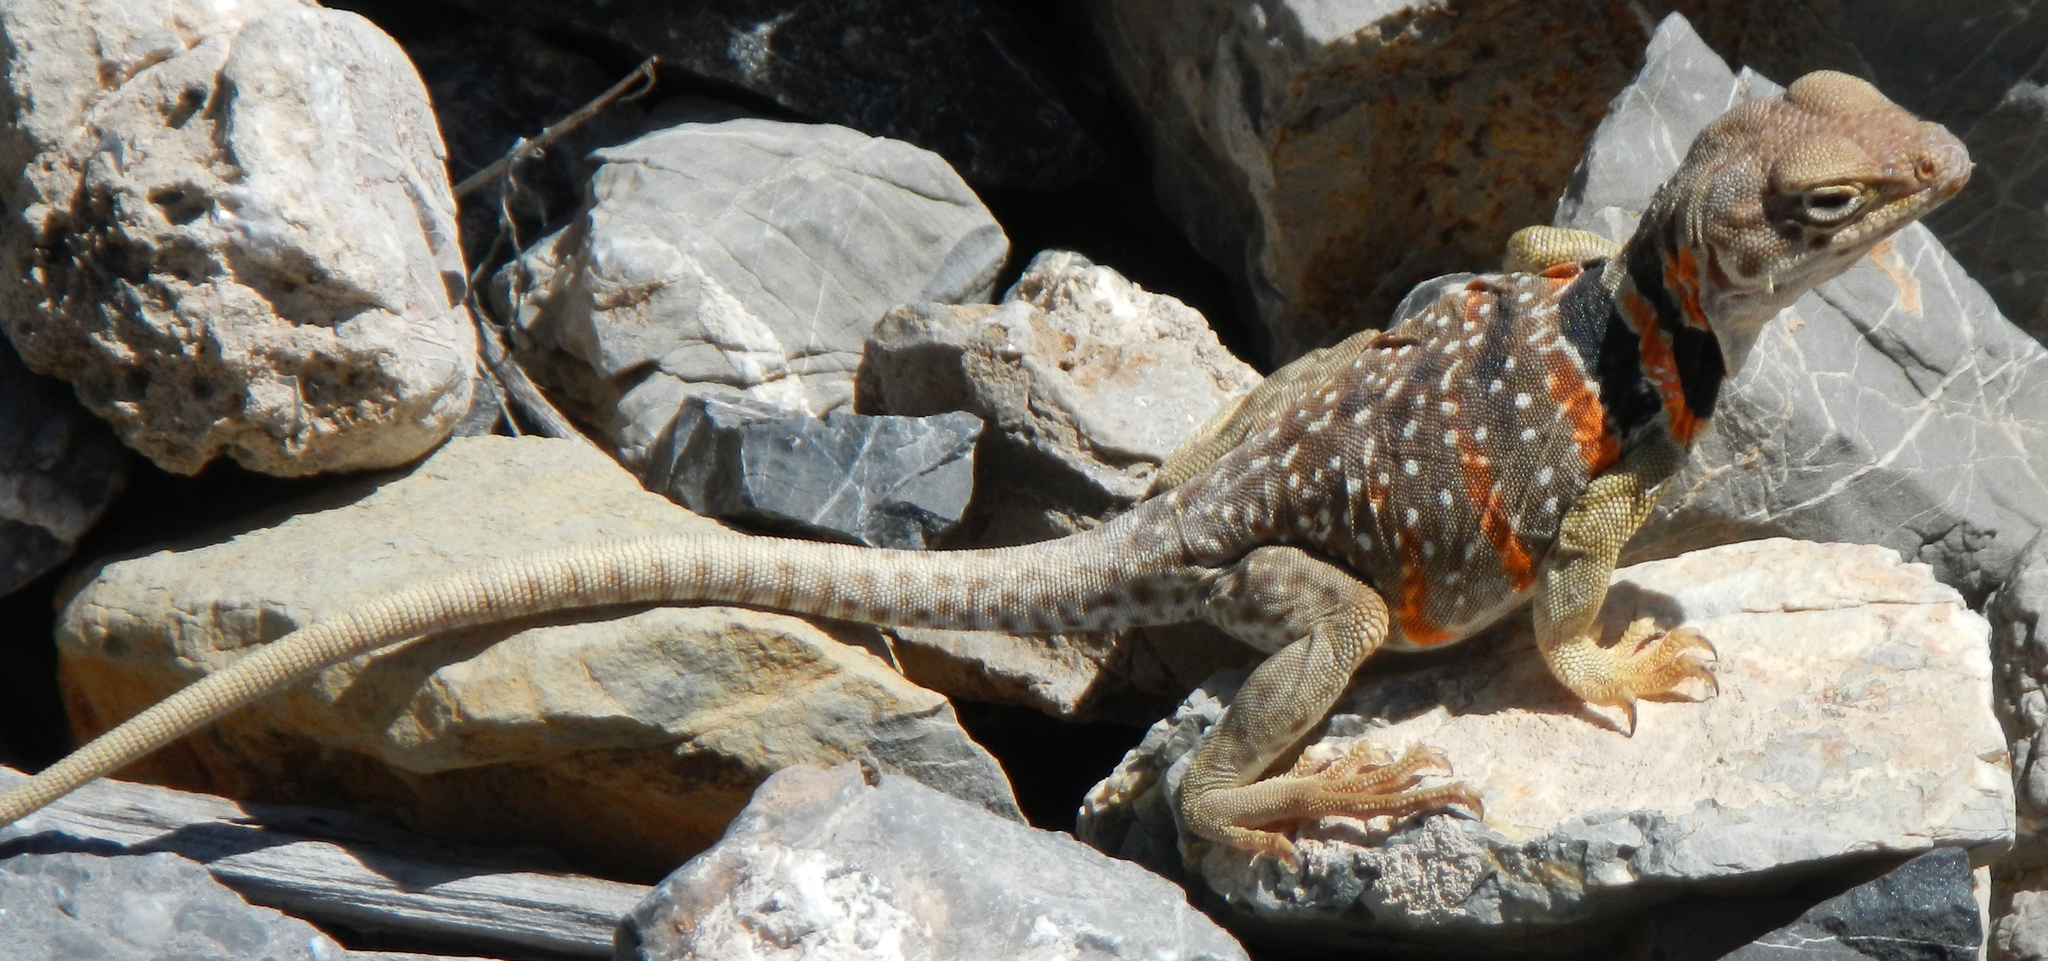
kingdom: Animalia
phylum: Chordata
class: Squamata
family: Crotaphytidae
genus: Crotaphytus
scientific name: Crotaphytus bicinctores
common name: Mojave black-collared lizard
